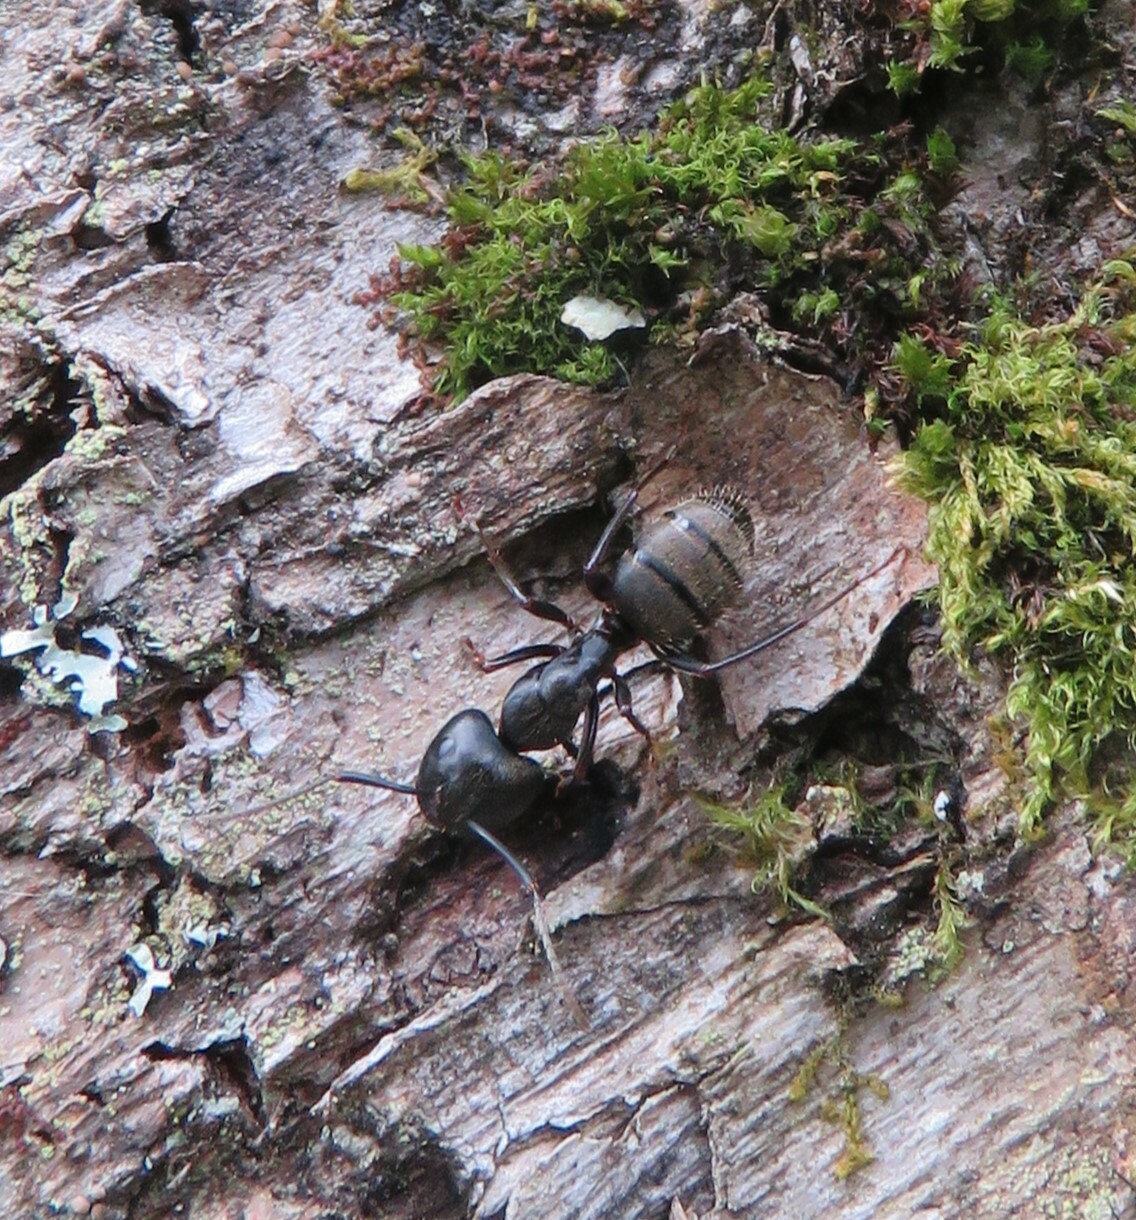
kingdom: Animalia
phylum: Arthropoda
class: Insecta
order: Hymenoptera
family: Formicidae
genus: Camponotus
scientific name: Camponotus pennsylvanicus
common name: Black carpenter ant
